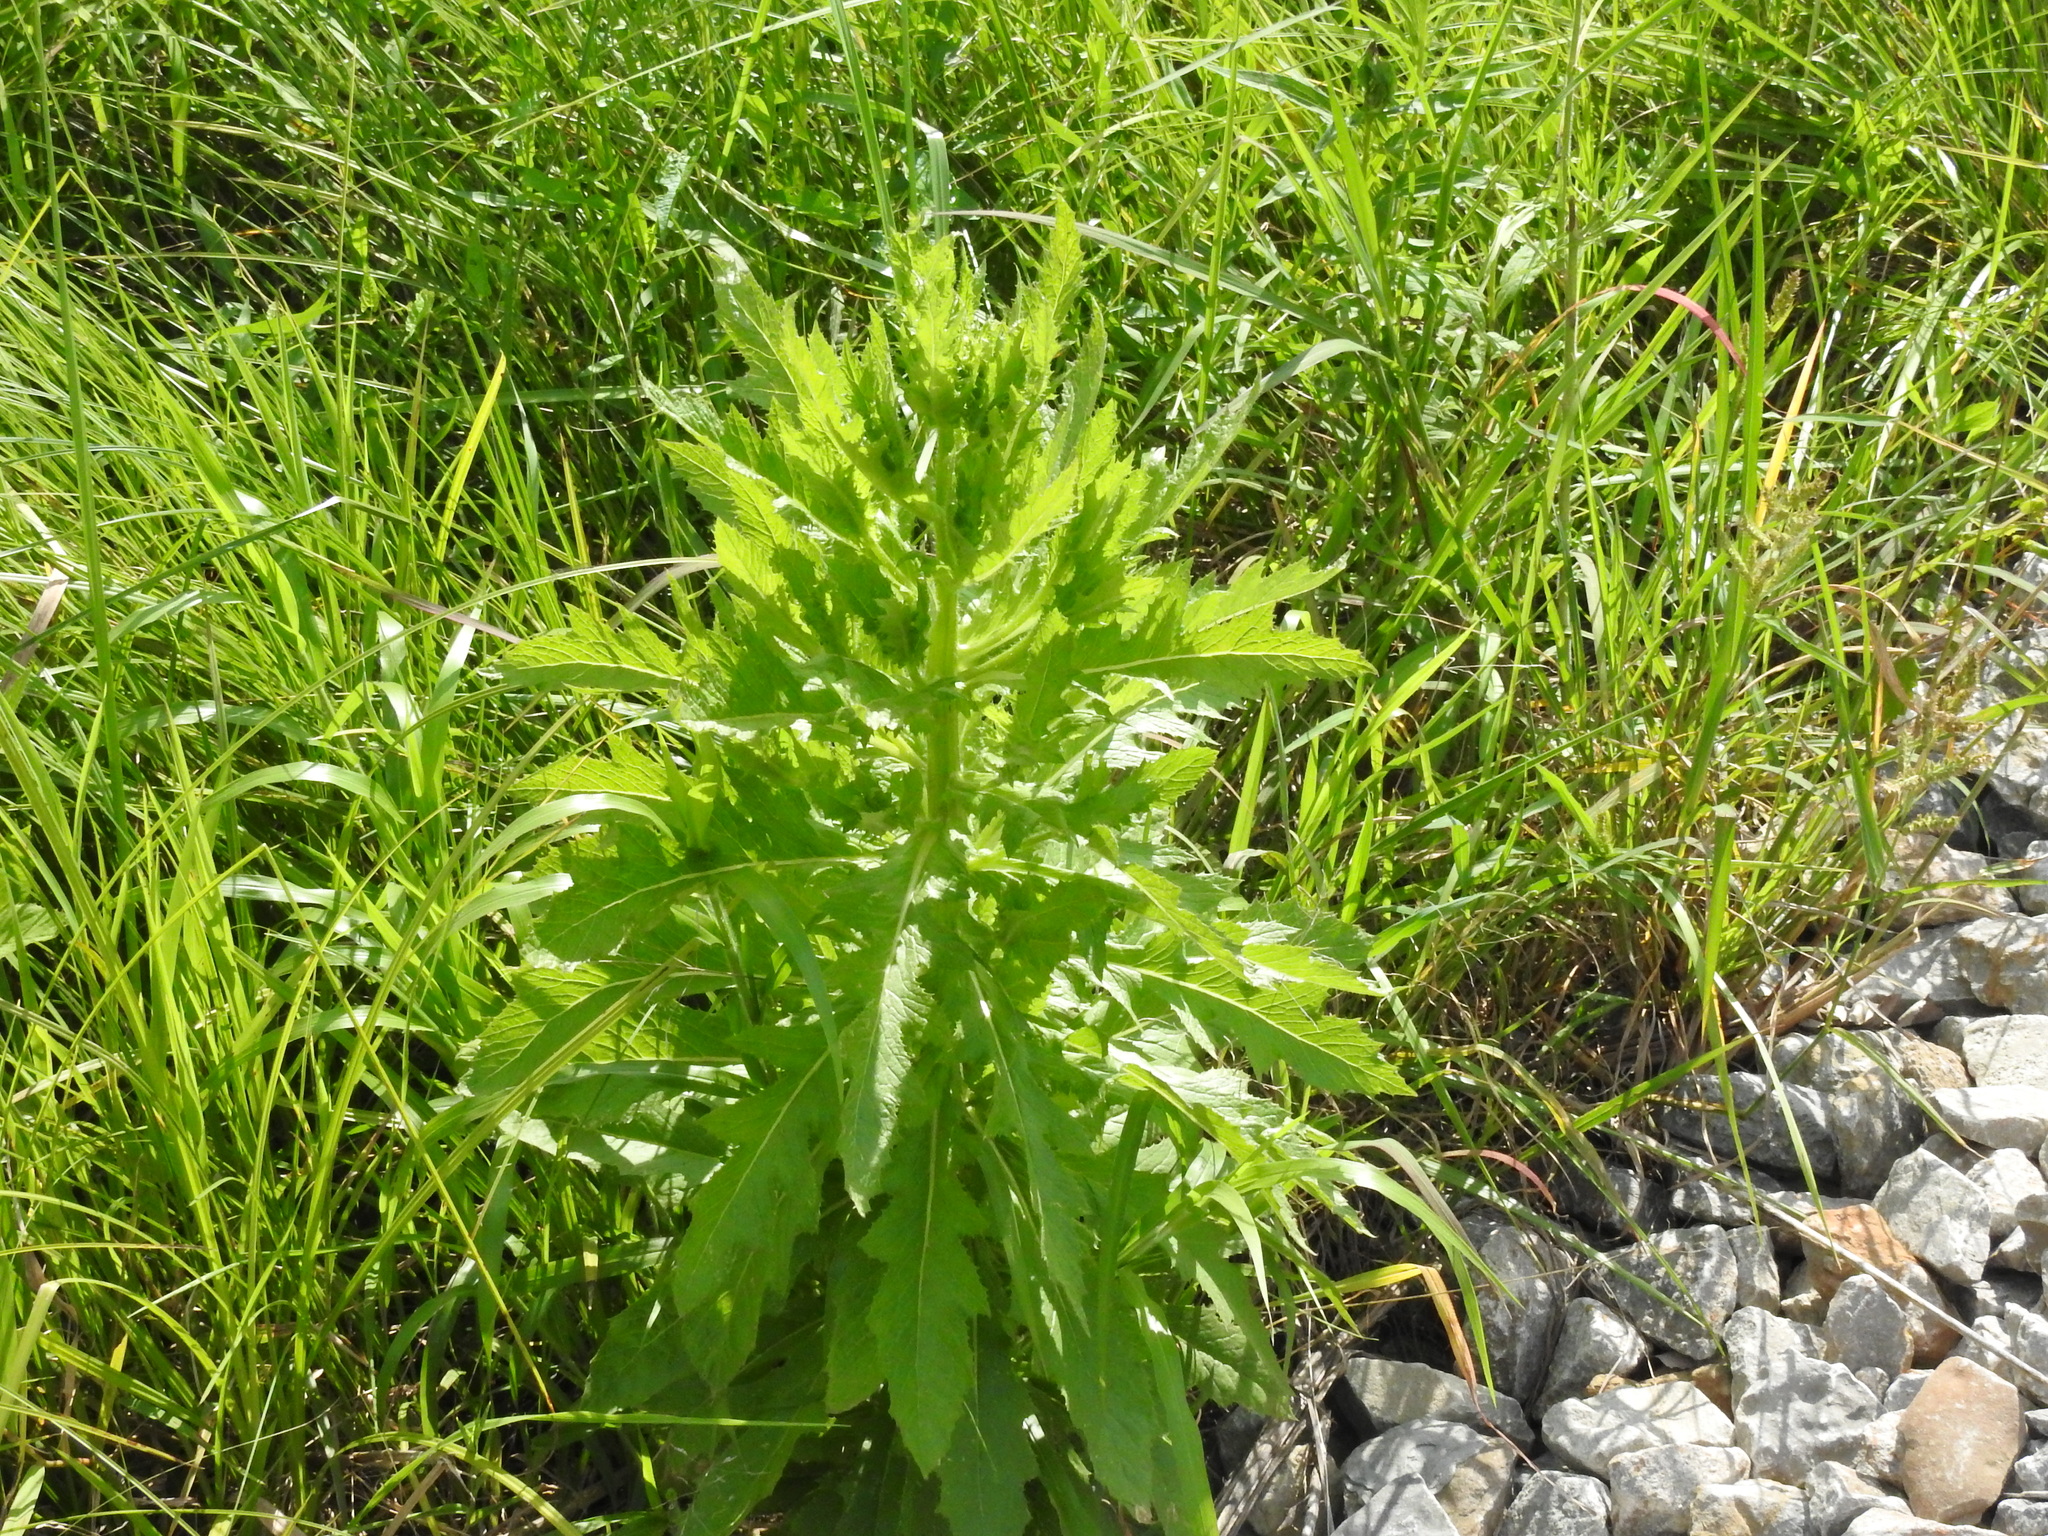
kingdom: Plantae
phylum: Tracheophyta
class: Magnoliopsida
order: Asterales
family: Asteraceae
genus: Erechtites
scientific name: Erechtites hieraciifolius
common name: American burnweed
